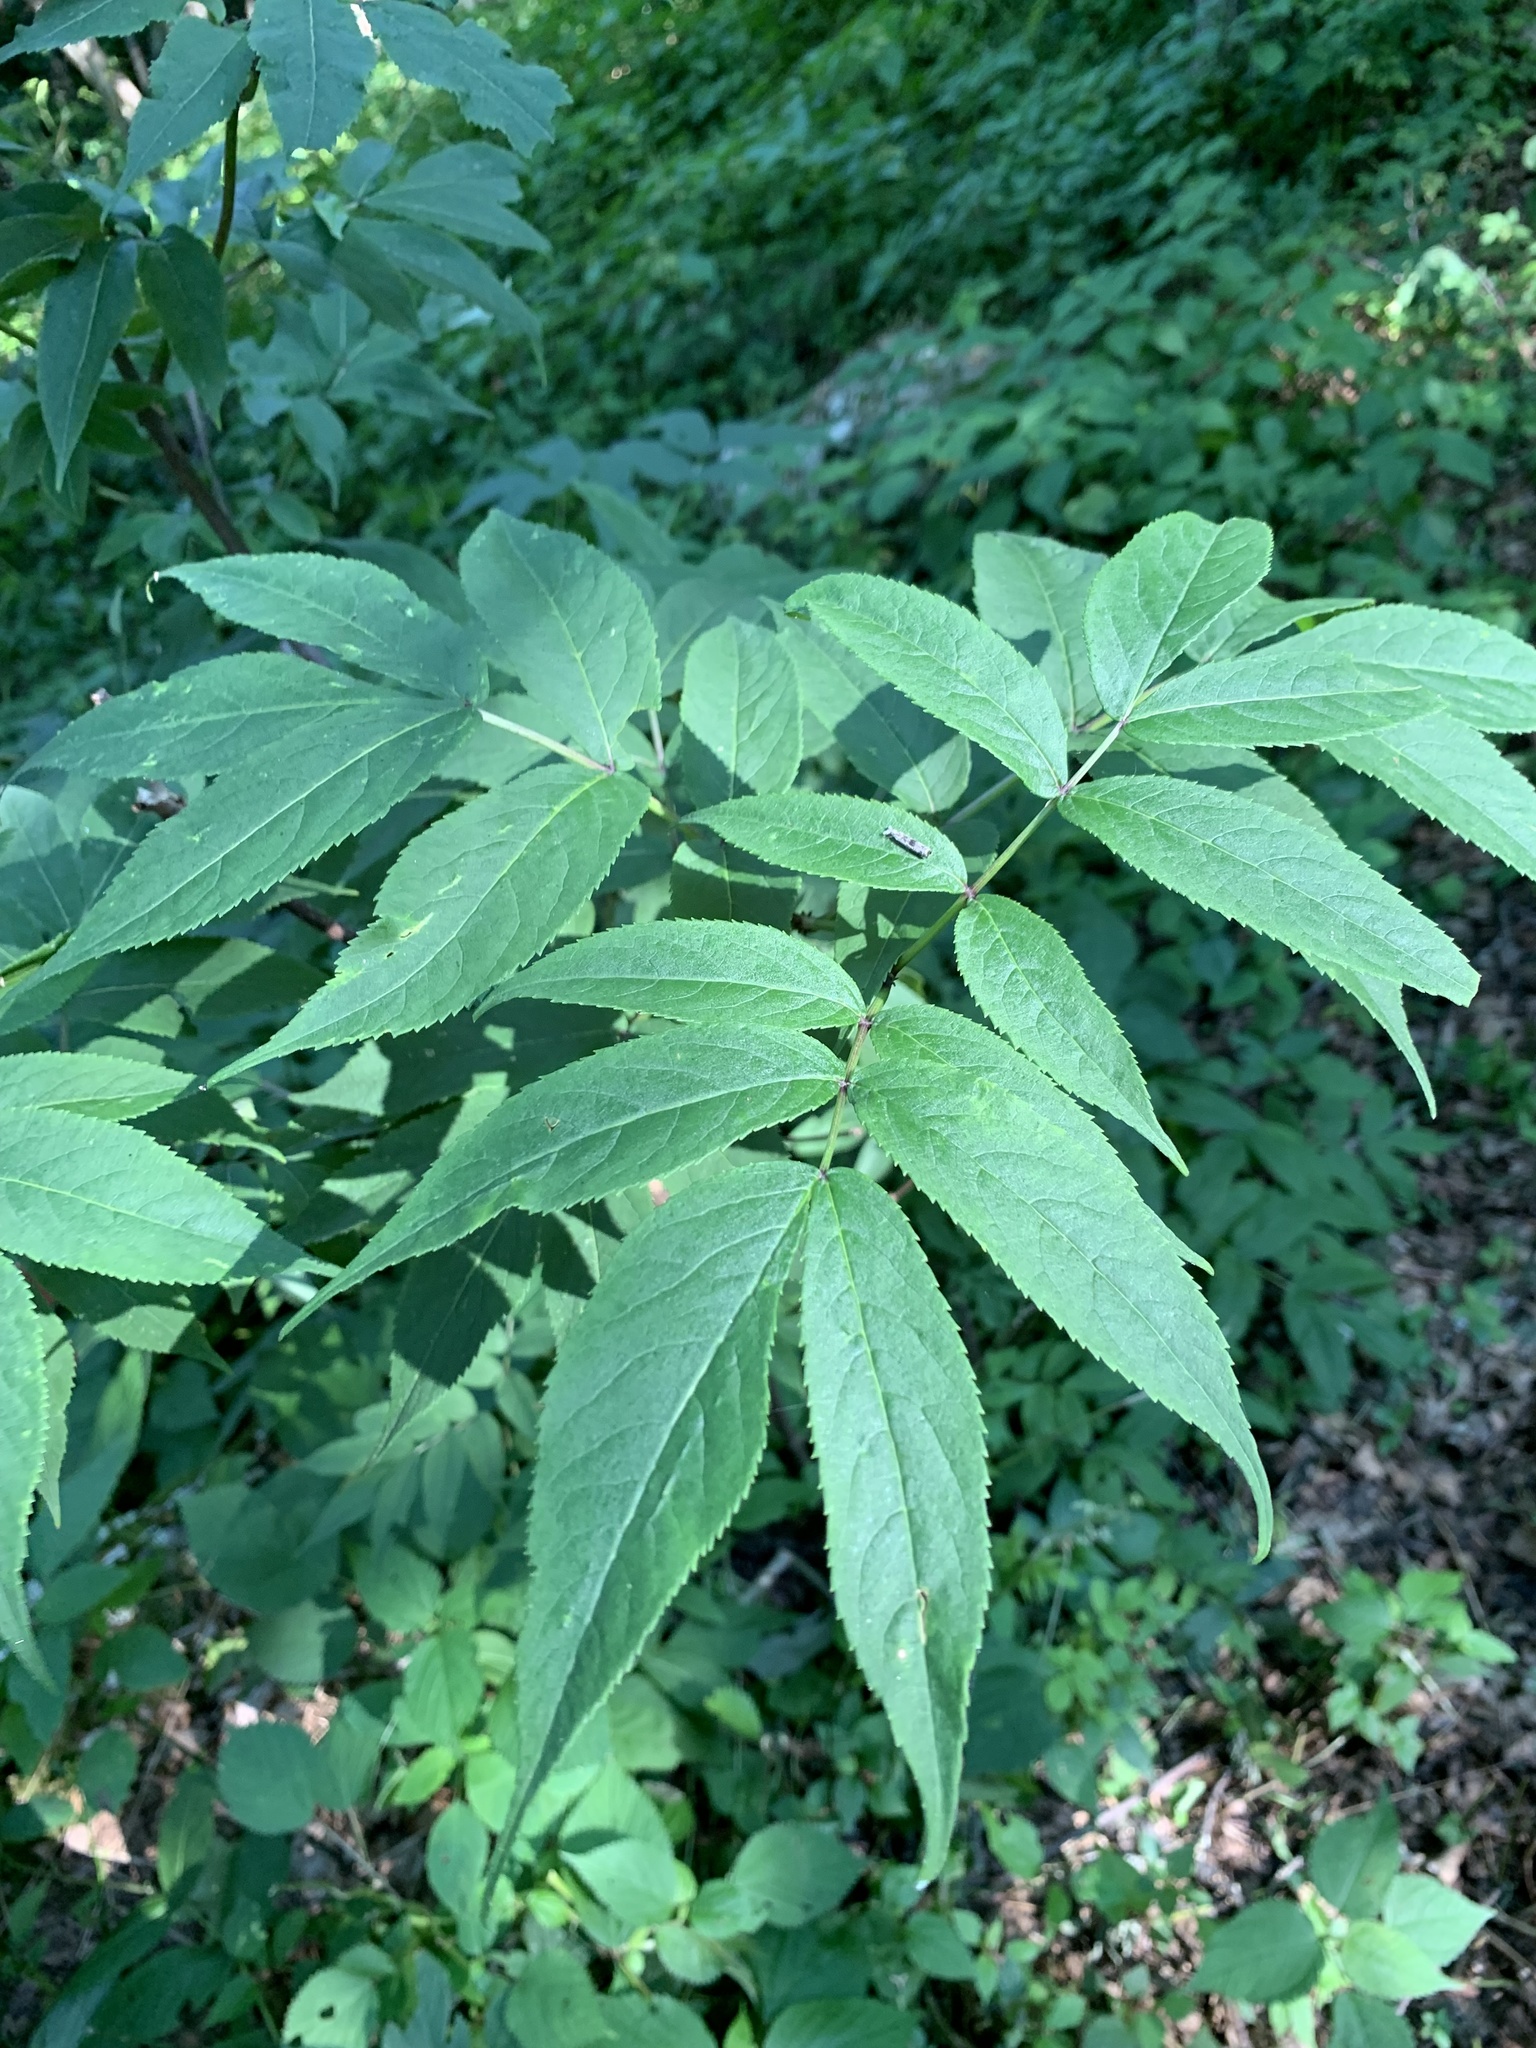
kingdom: Plantae
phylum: Tracheophyta
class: Magnoliopsida
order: Dipsacales
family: Viburnaceae
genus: Sambucus
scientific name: Sambucus racemosa
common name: Red-berried elder
